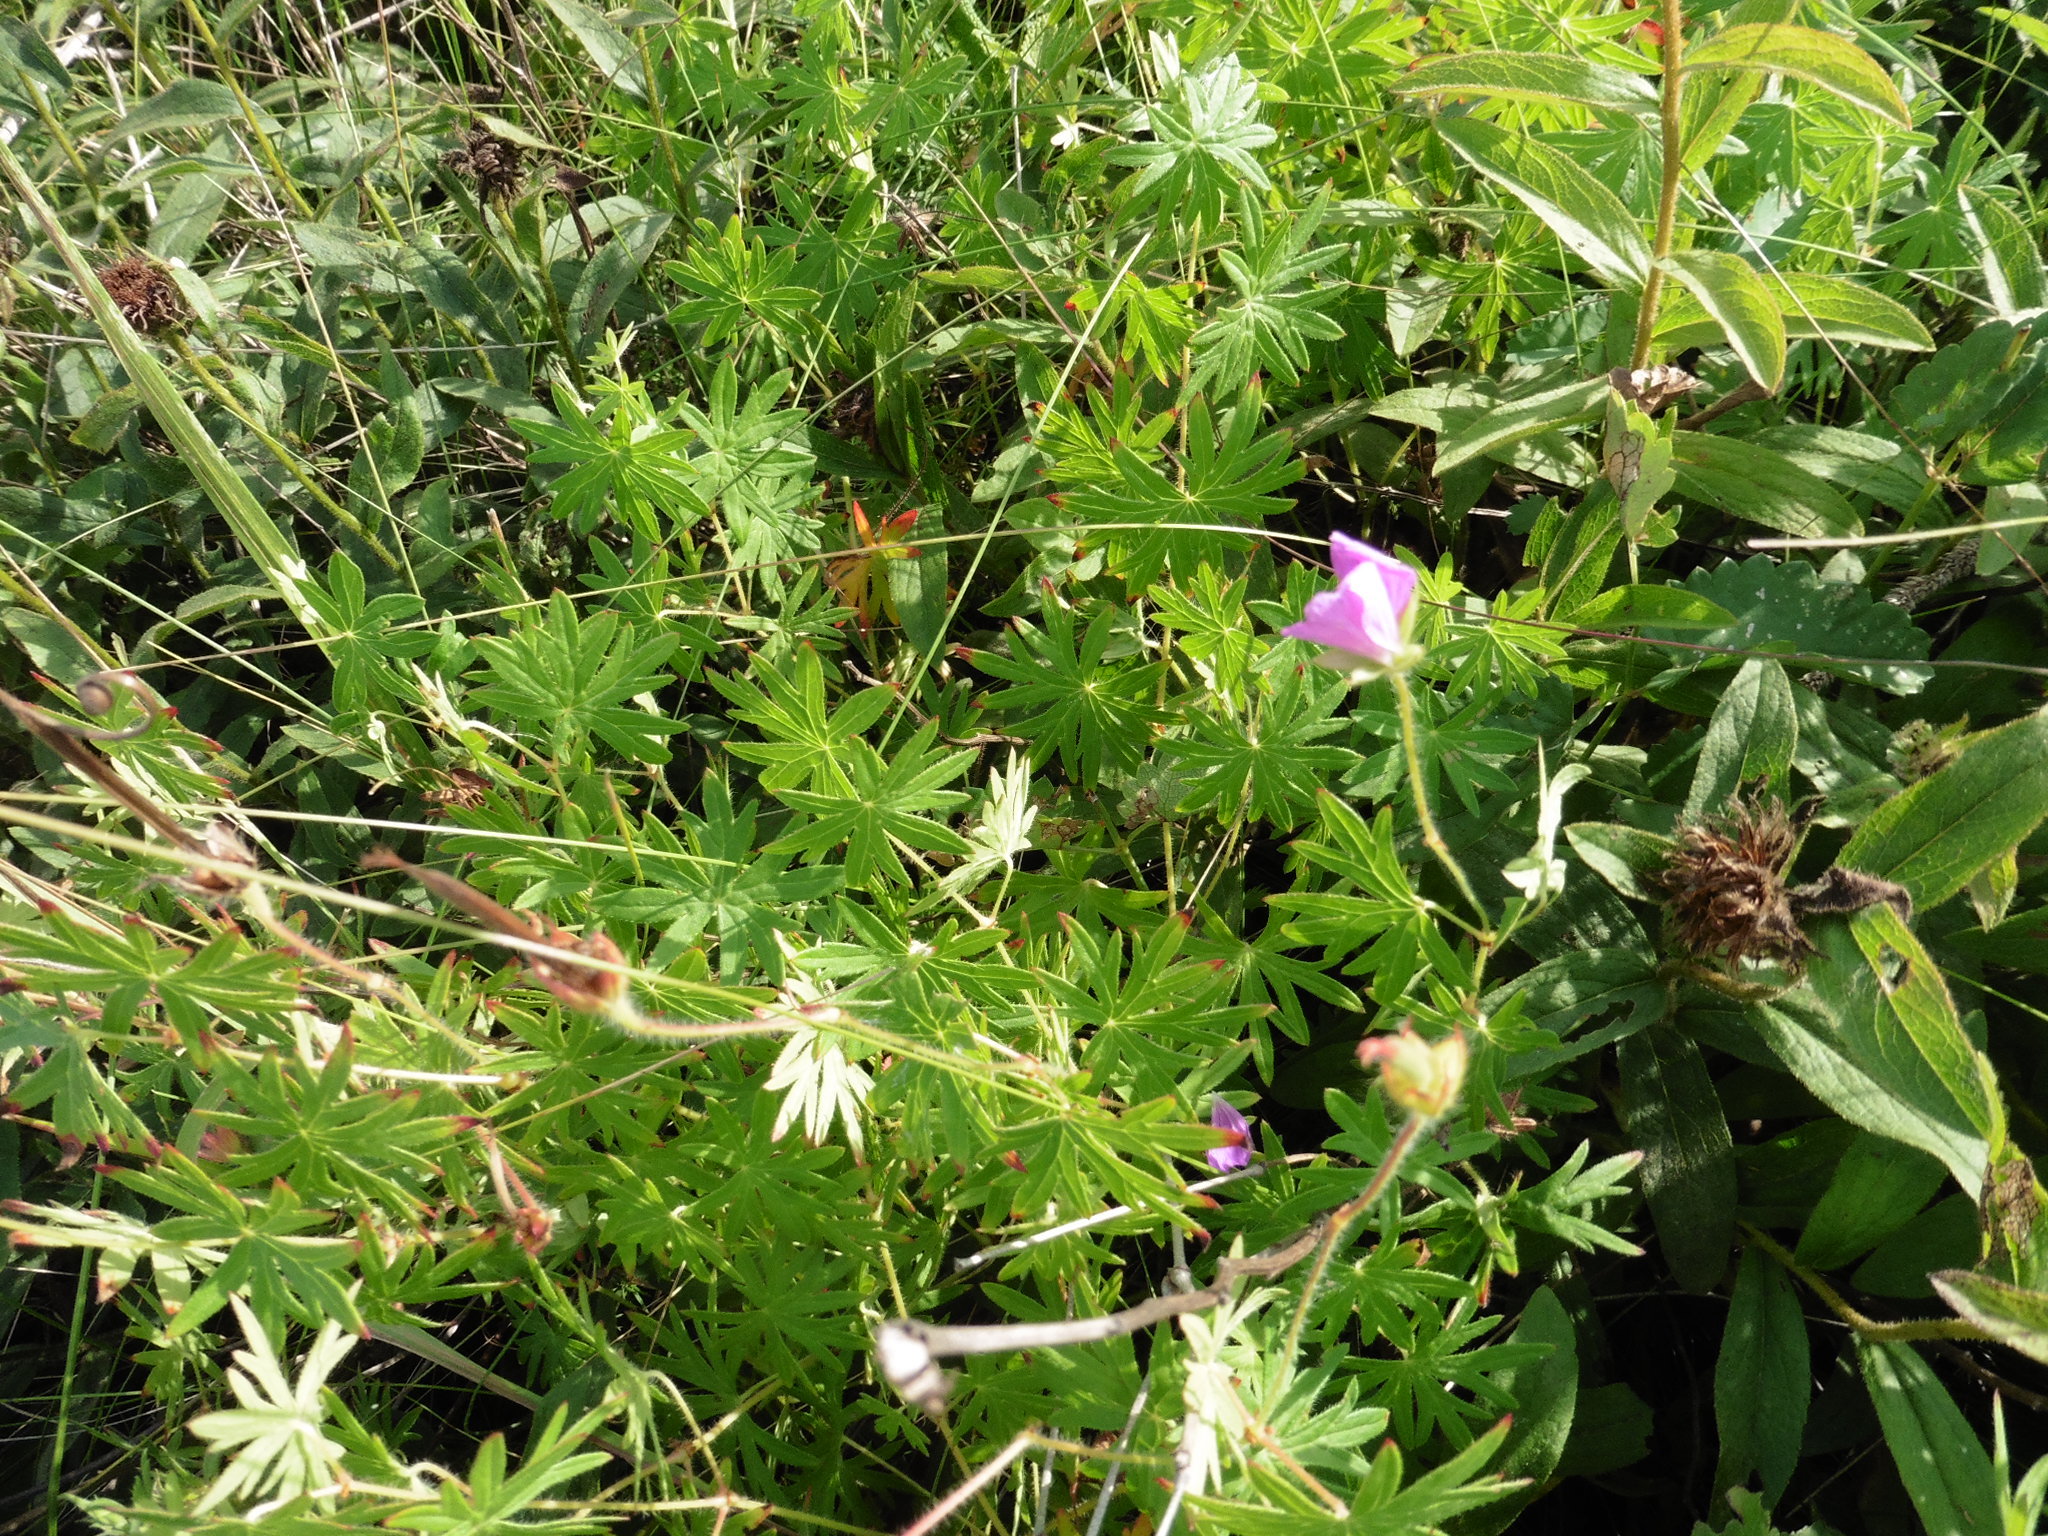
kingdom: Plantae
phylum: Tracheophyta
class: Magnoliopsida
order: Geraniales
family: Geraniaceae
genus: Geranium
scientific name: Geranium sanguineum
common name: Bloody crane's-bill
